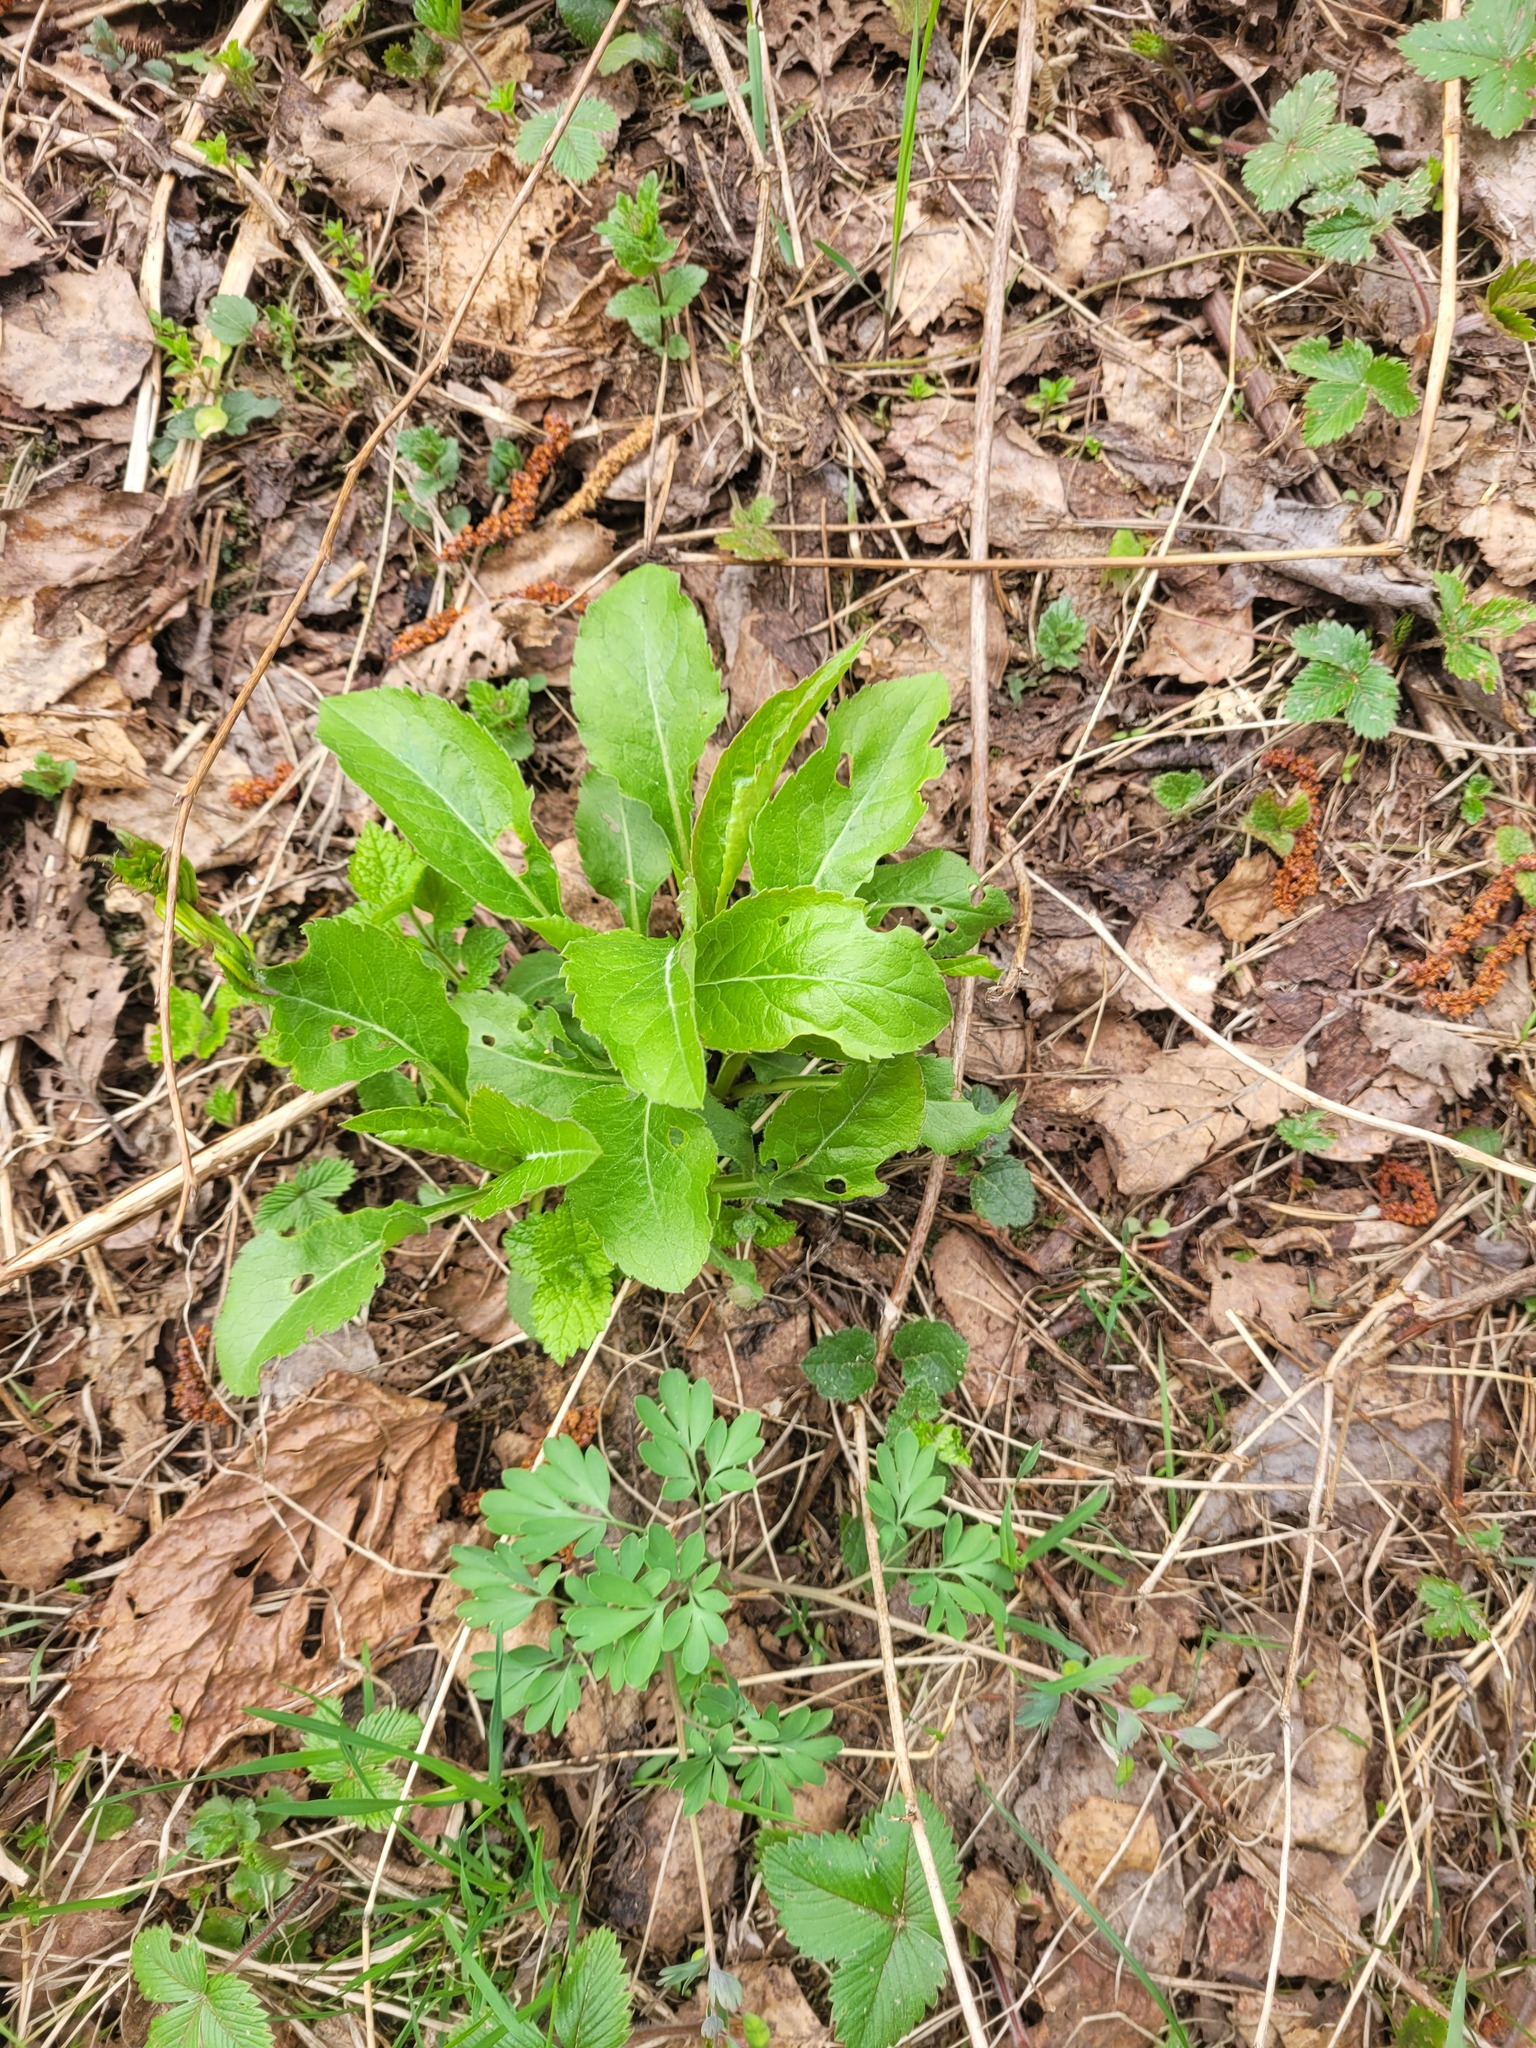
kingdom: Plantae
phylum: Tracheophyta
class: Magnoliopsida
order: Asterales
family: Asteraceae
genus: Solidago
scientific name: Solidago virgaurea
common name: Goldenrod
